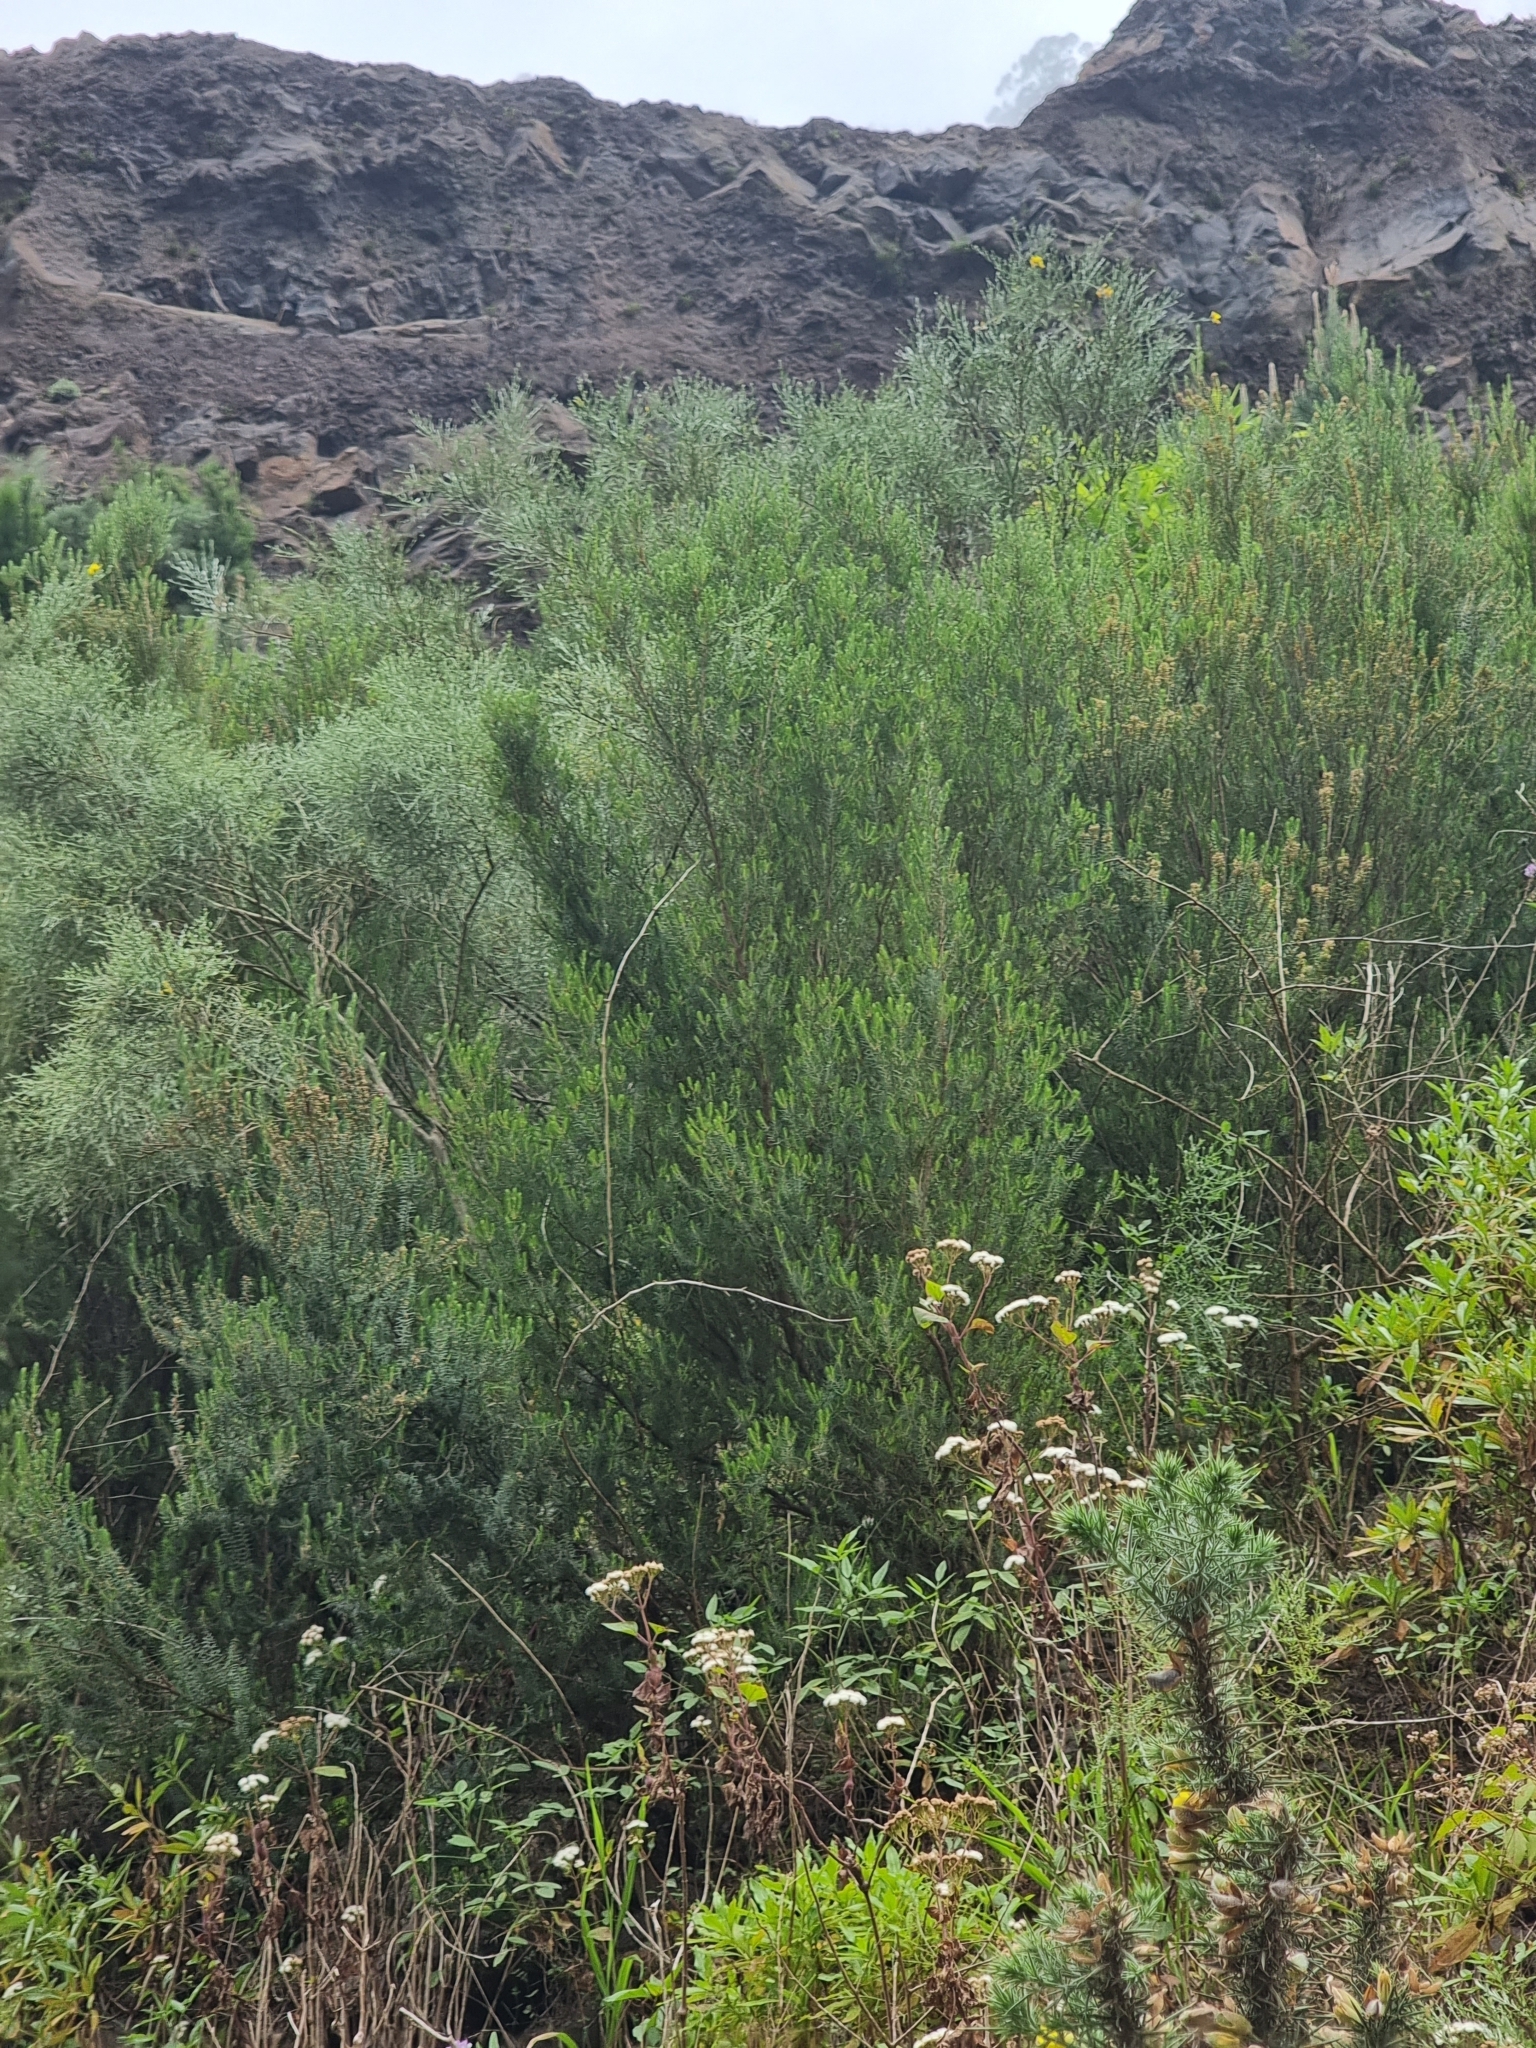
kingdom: Plantae
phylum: Tracheophyta
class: Magnoliopsida
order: Ericales
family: Ericaceae
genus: Erica
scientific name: Erica platycodon
